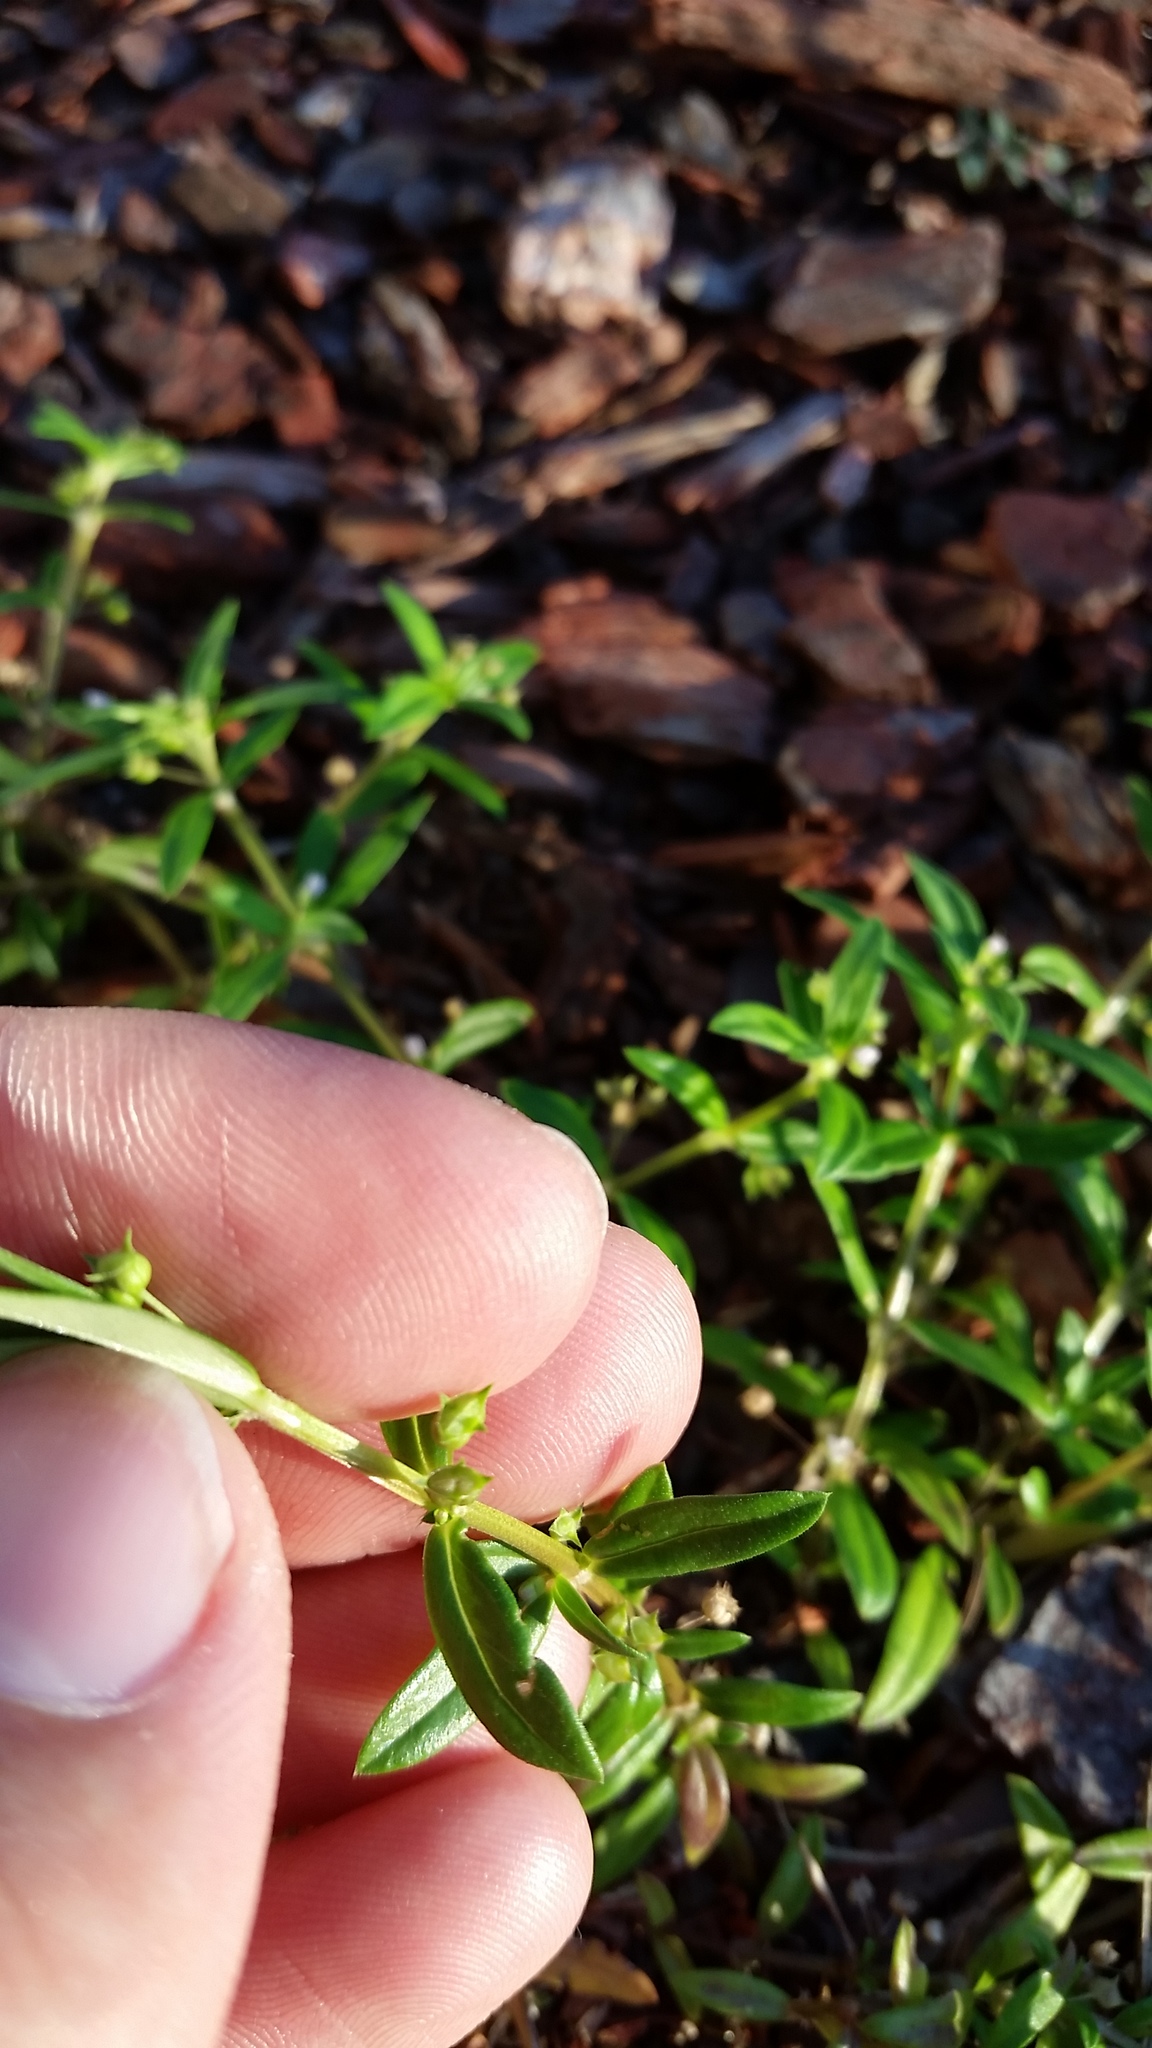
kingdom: Plantae
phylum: Tracheophyta
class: Magnoliopsida
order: Gentianales
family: Rubiaceae
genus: Oldenlandia
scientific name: Oldenlandia corymbosa
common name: Flat-top mille graines
